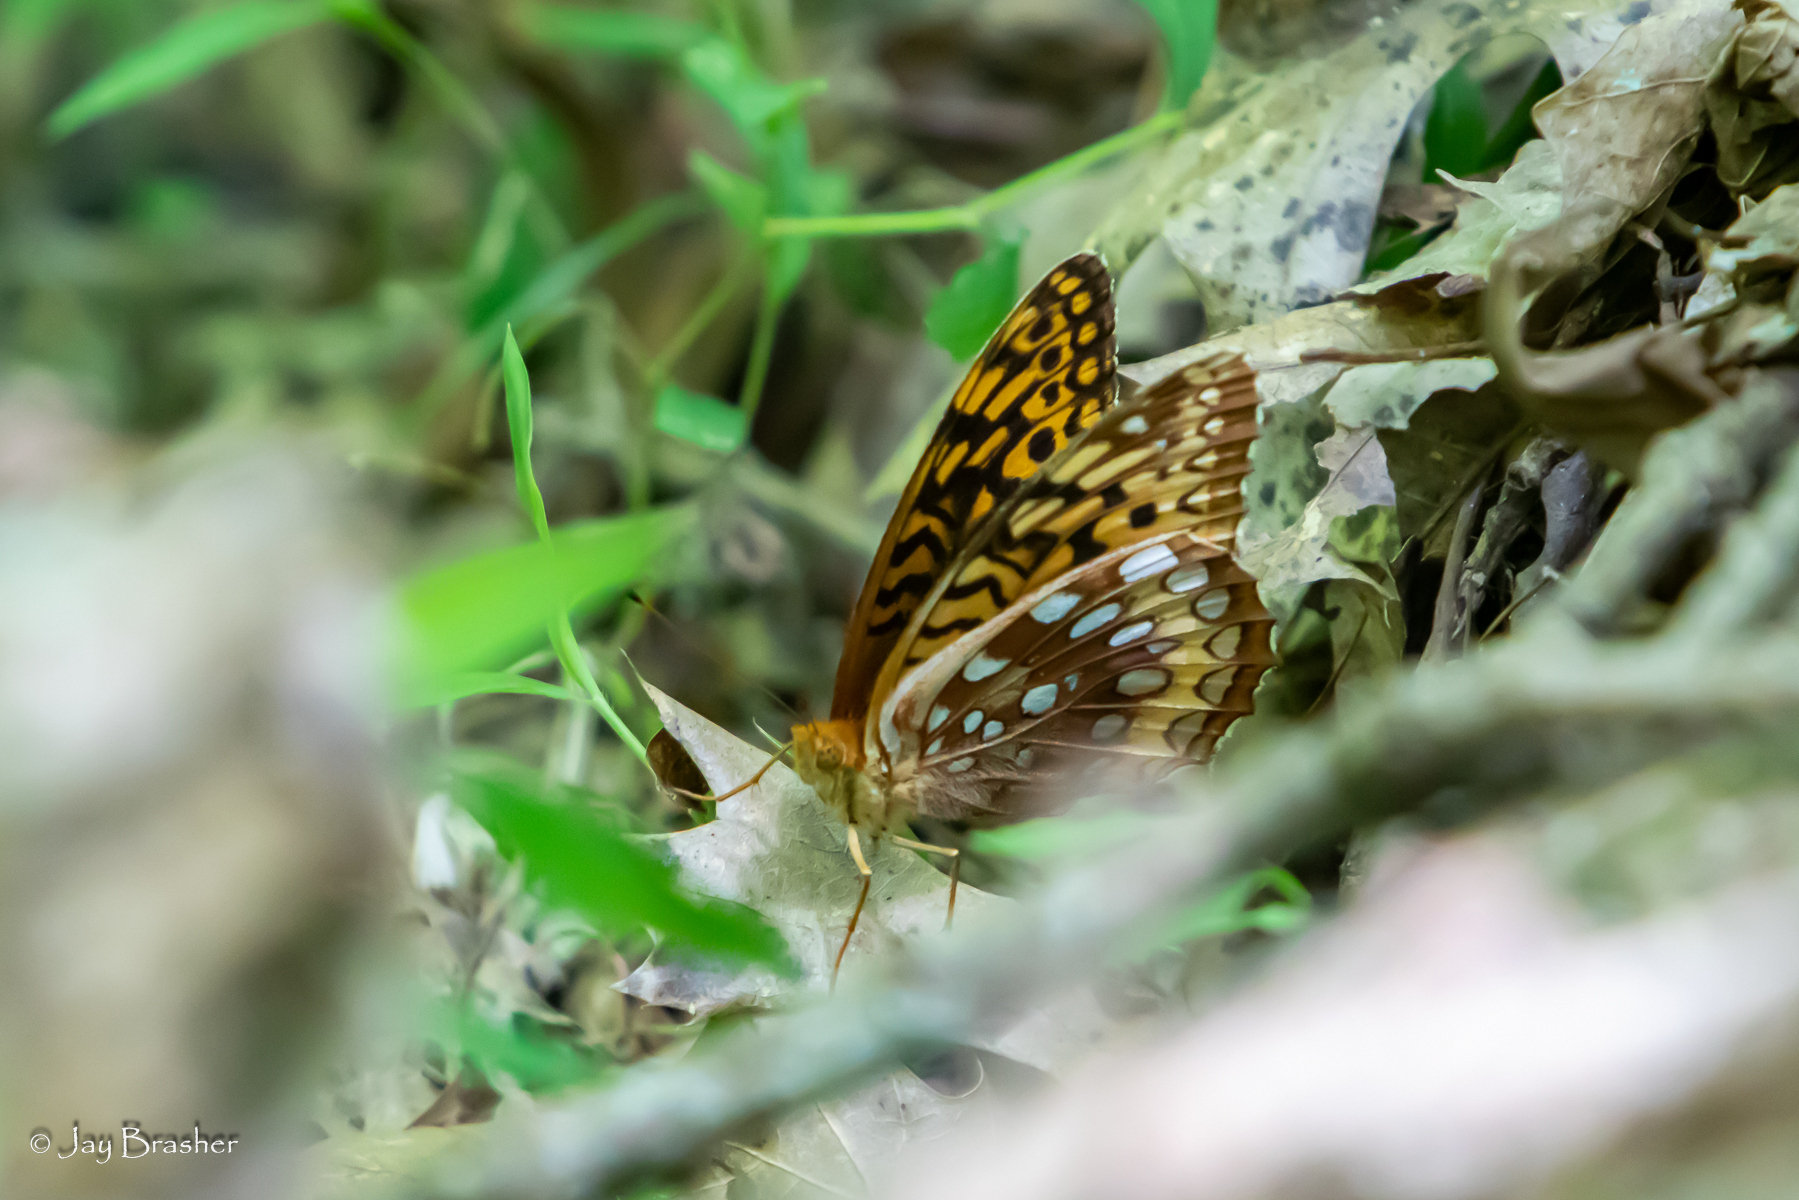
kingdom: Animalia
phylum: Arthropoda
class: Insecta
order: Lepidoptera
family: Nymphalidae
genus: Speyeria
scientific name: Speyeria cybele
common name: Great spangled fritillary
